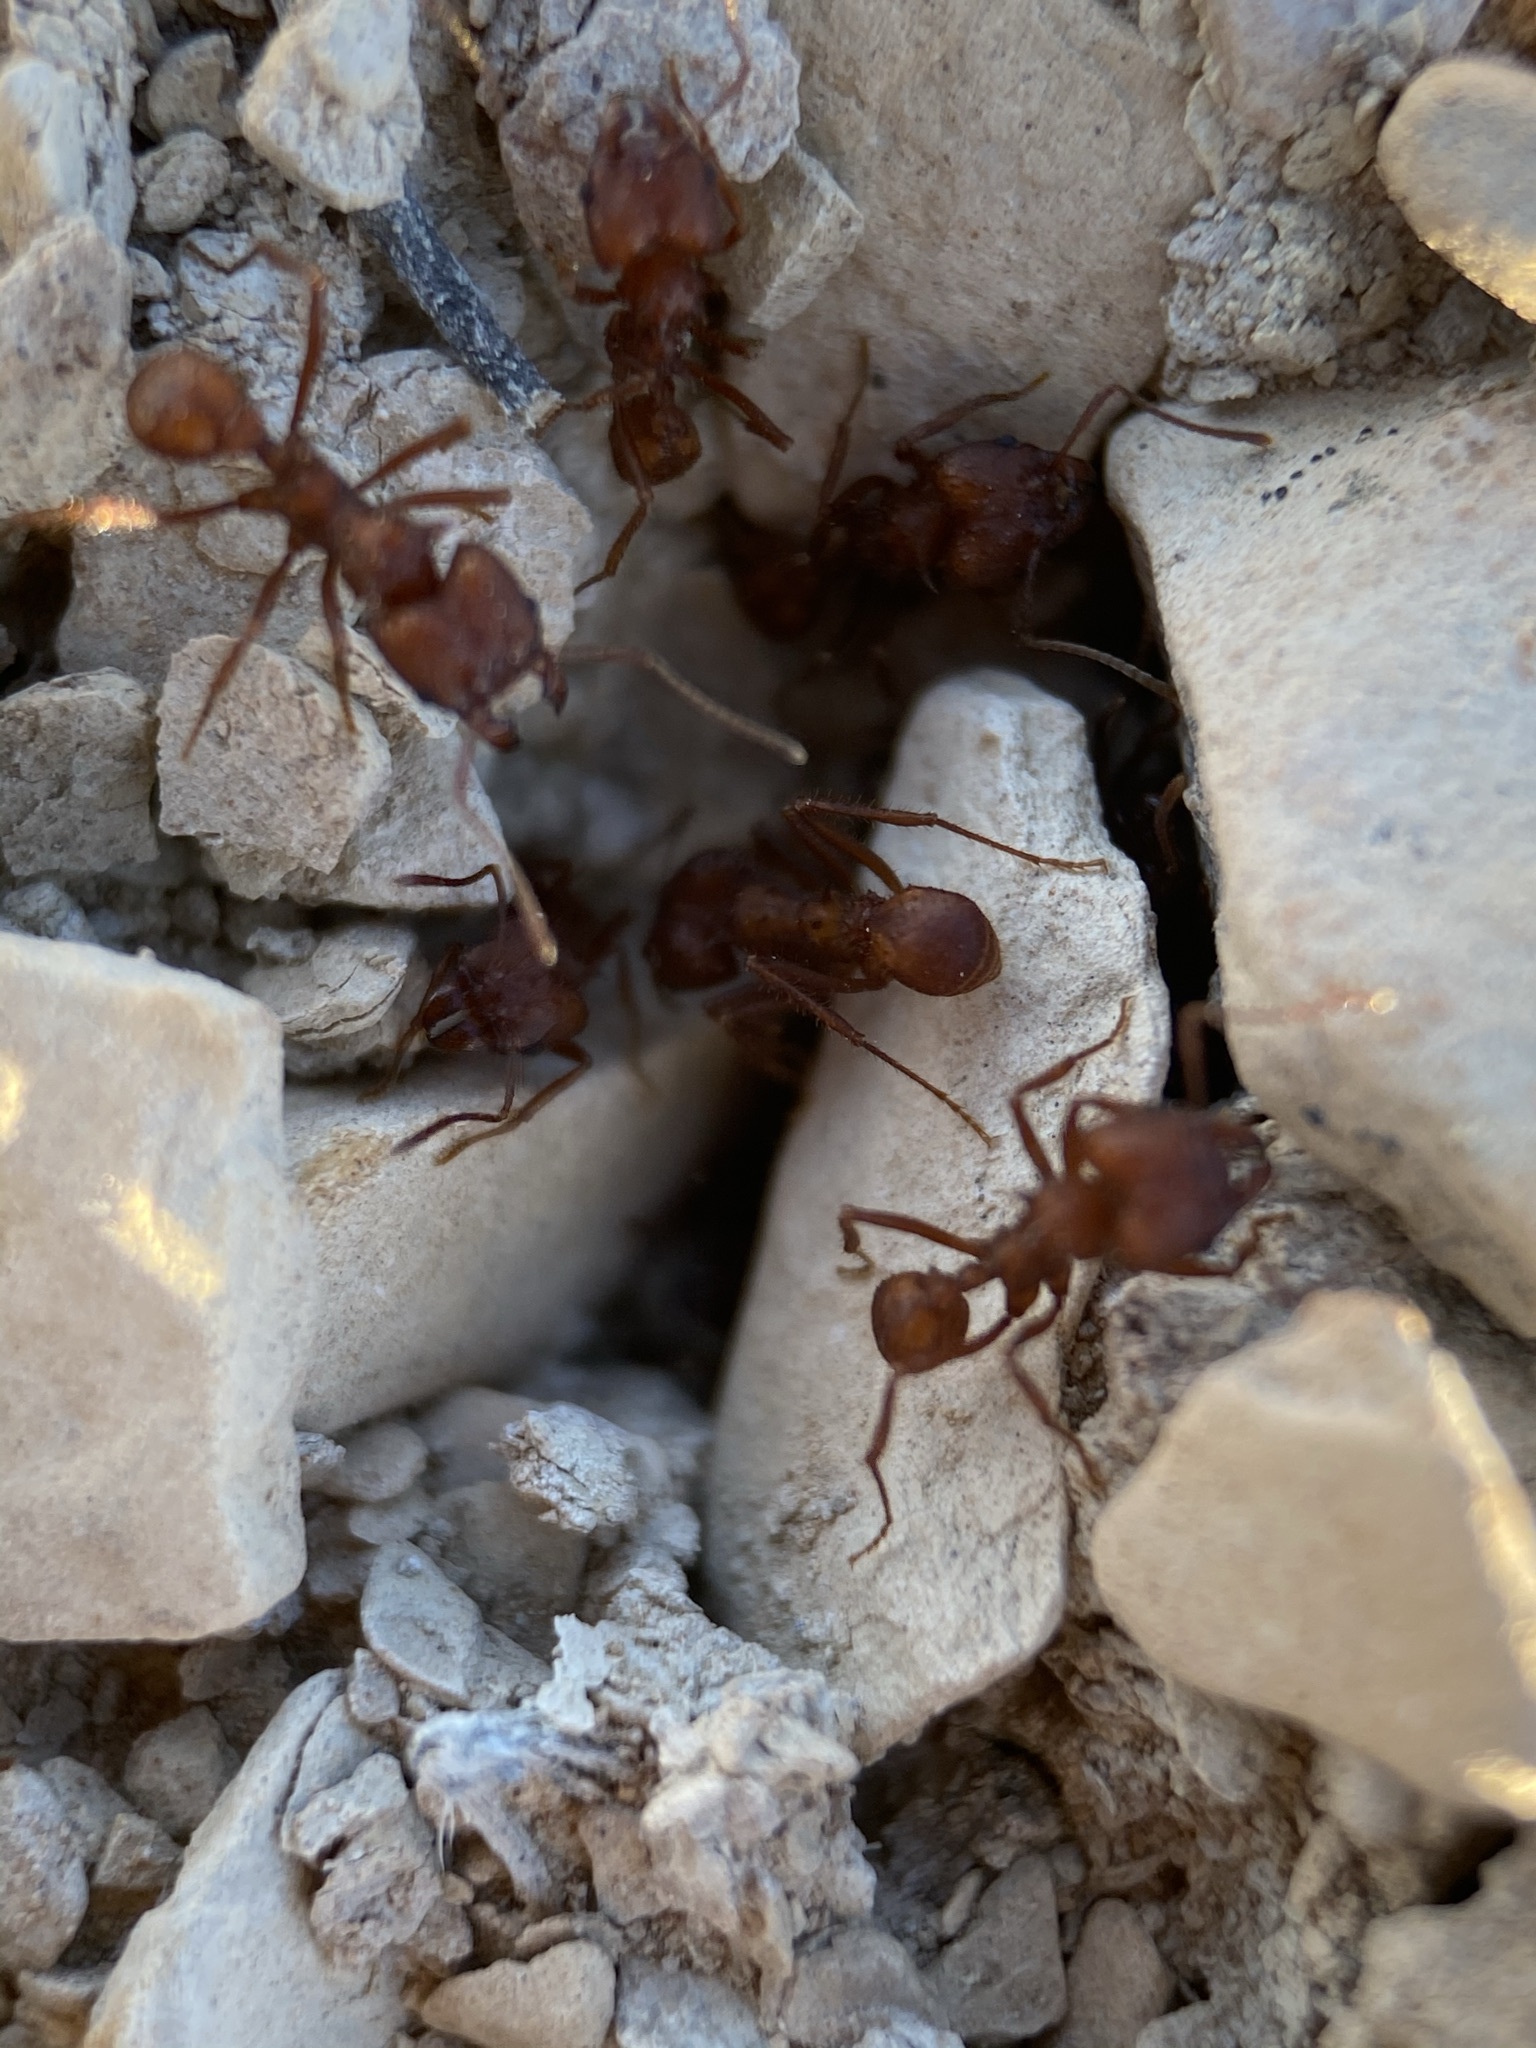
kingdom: Animalia
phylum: Arthropoda
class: Insecta
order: Hymenoptera
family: Formicidae
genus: Acromyrmex
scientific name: Acromyrmex versicolor
